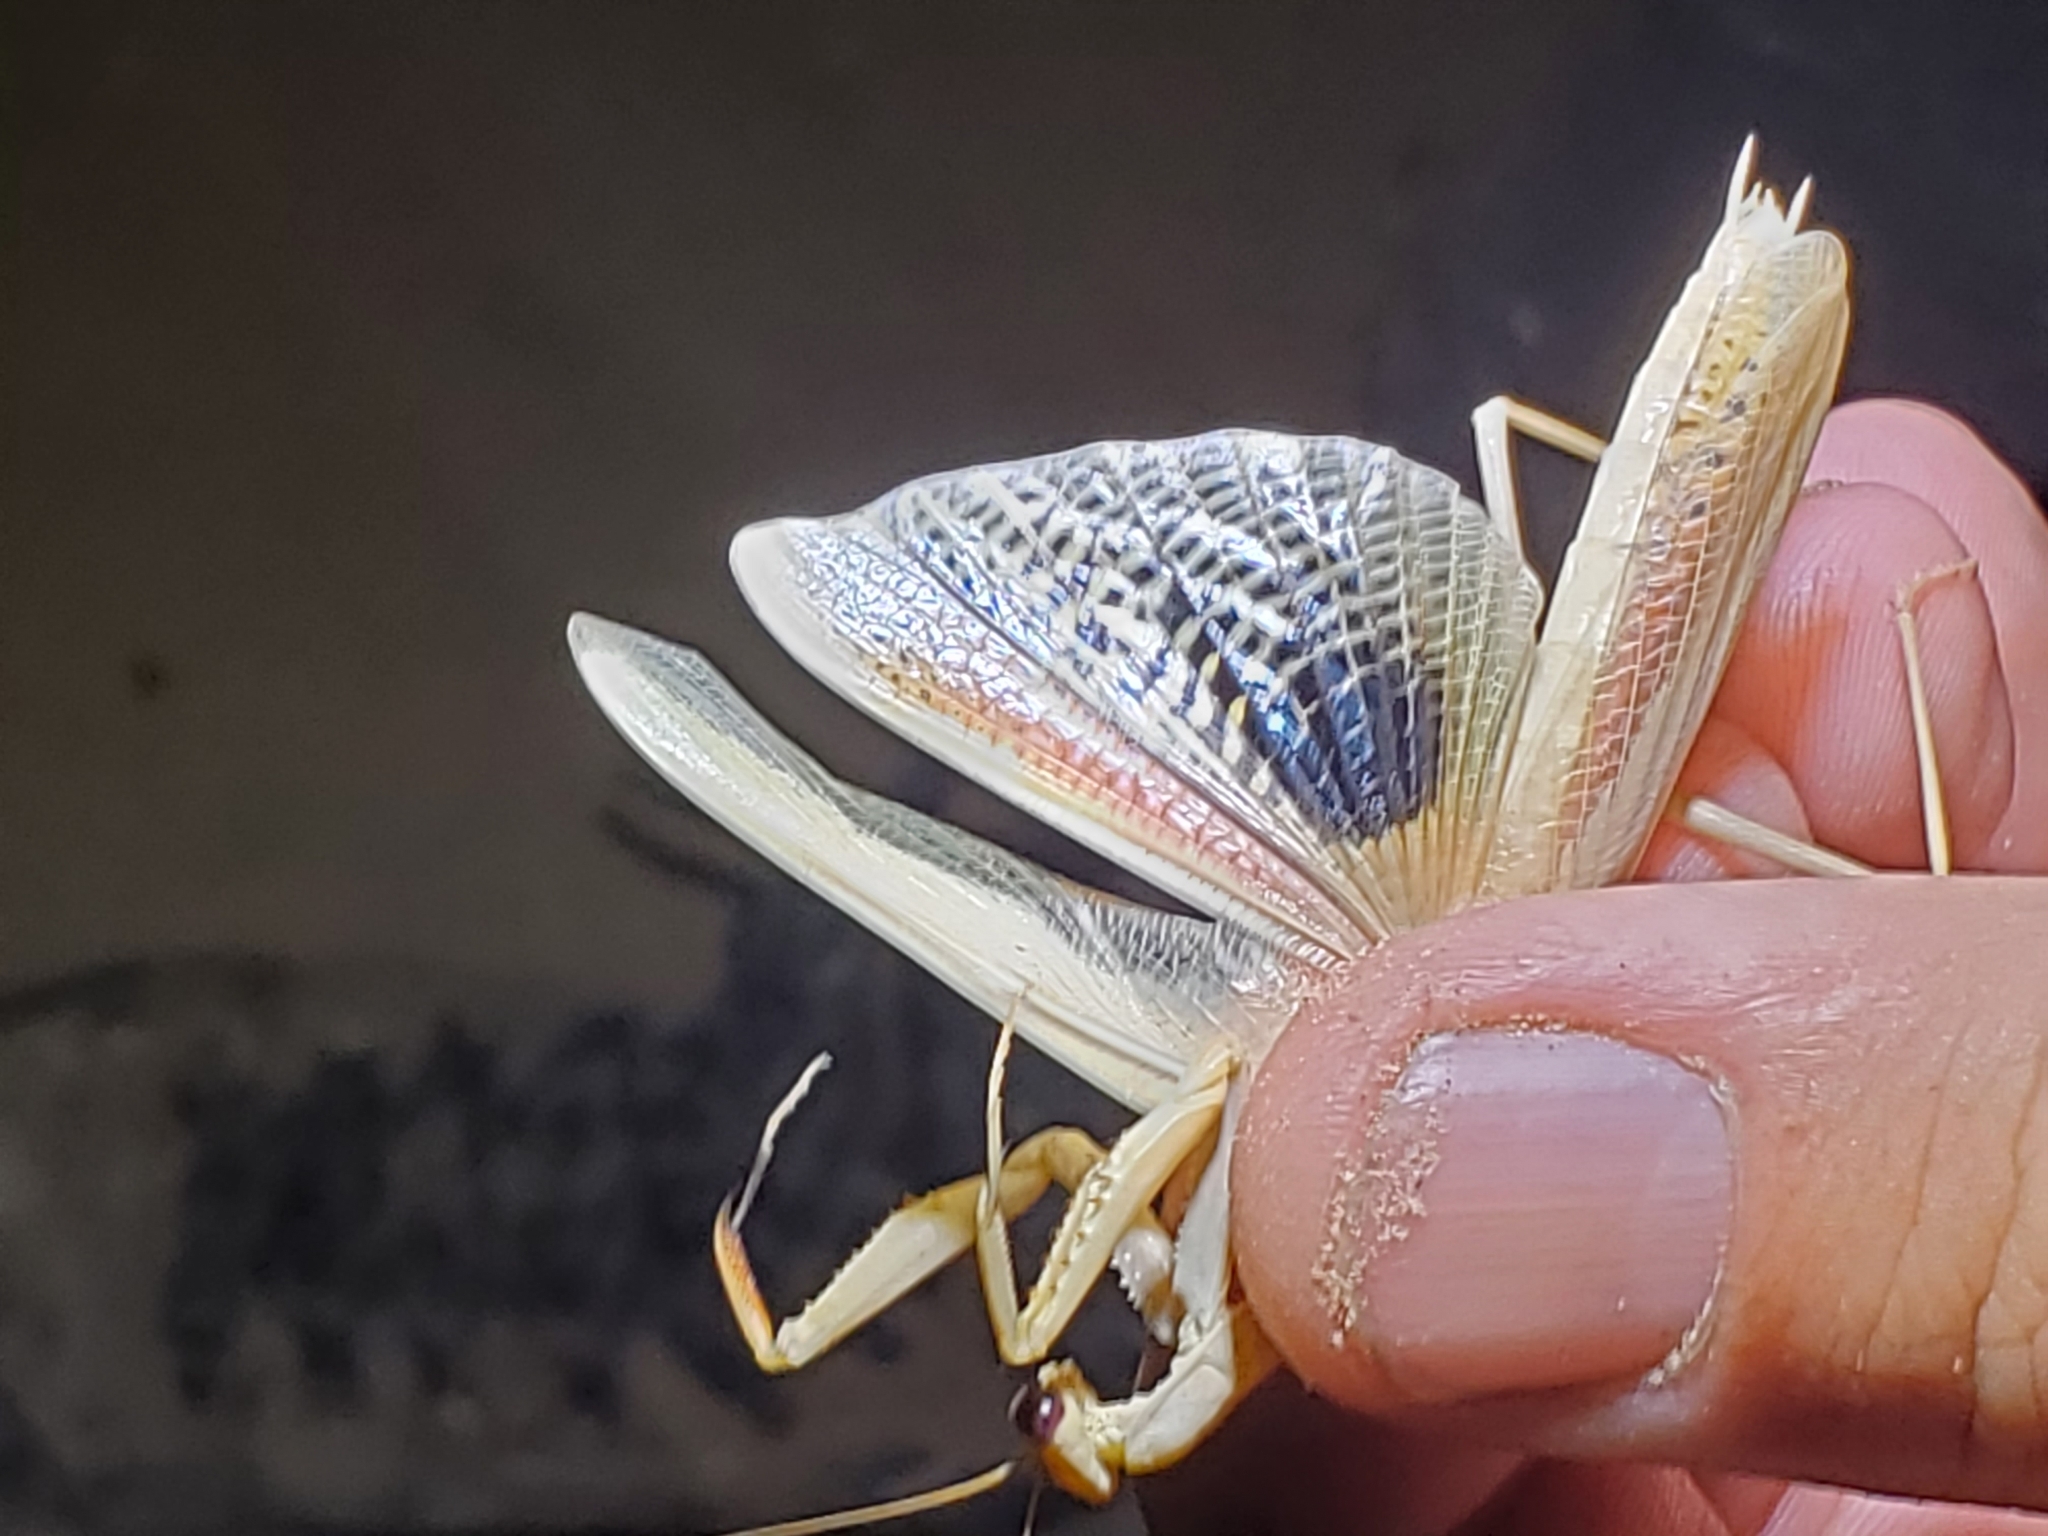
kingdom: Animalia
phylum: Arthropoda
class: Insecta
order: Mantodea
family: Eremiaphilidae
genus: Iris
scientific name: Iris oratoria
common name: Mediterranean mantis
